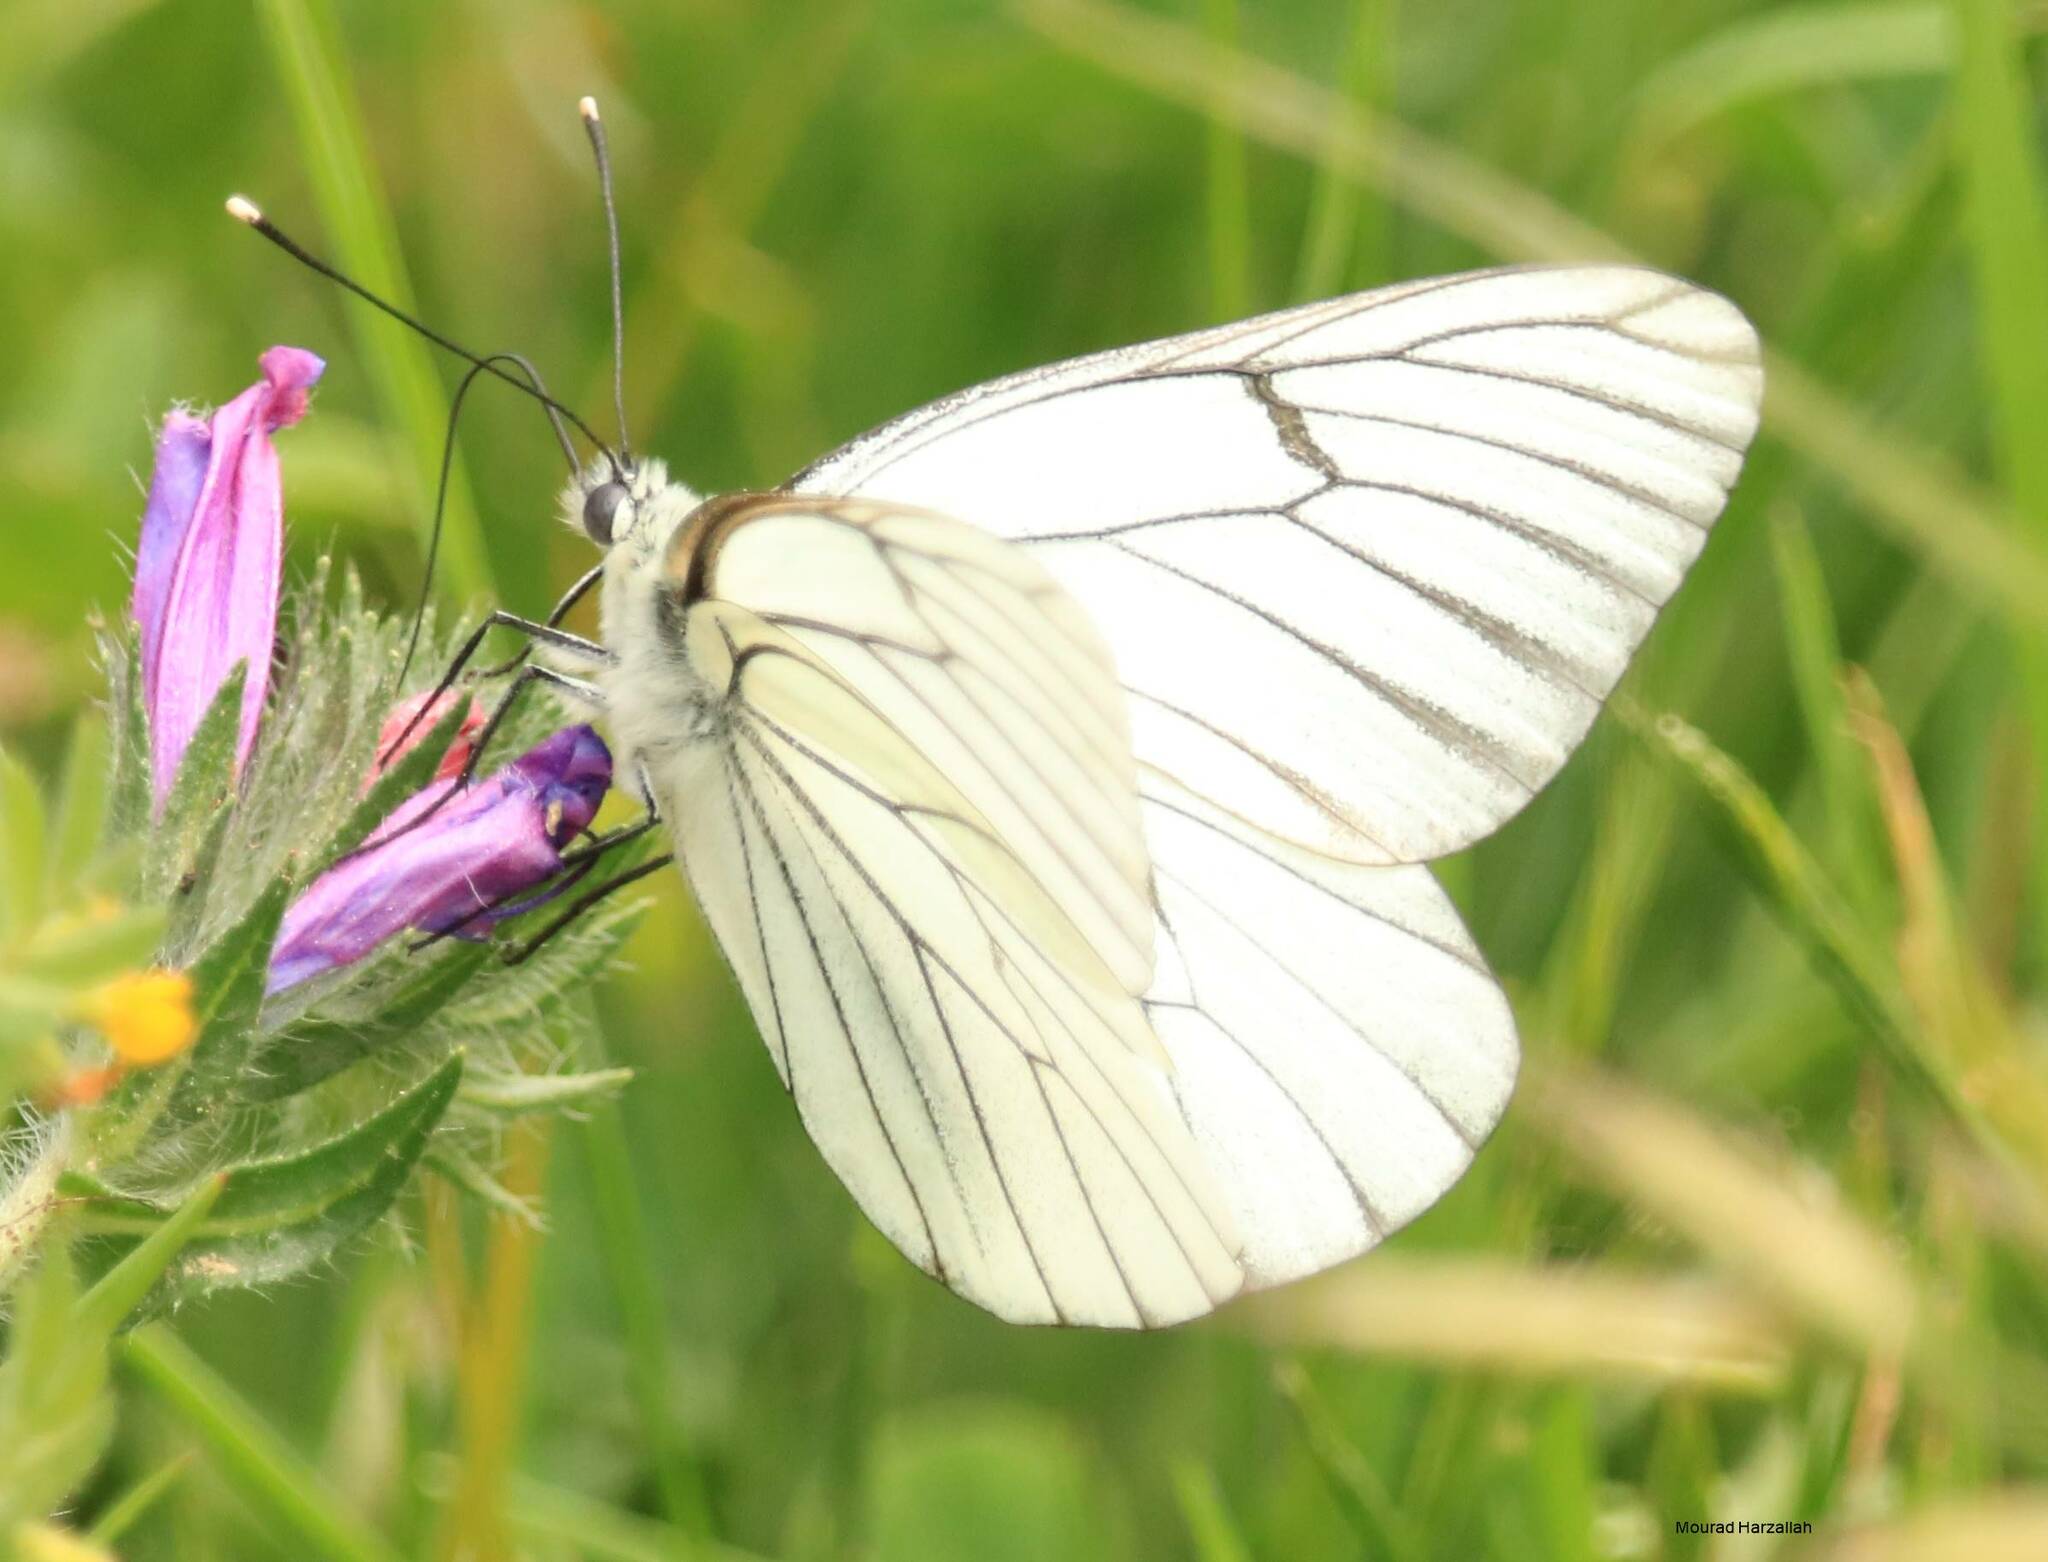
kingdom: Animalia
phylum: Arthropoda
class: Insecta
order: Lepidoptera
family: Pieridae
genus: Aporia
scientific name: Aporia crataegi
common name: Black-veined white
